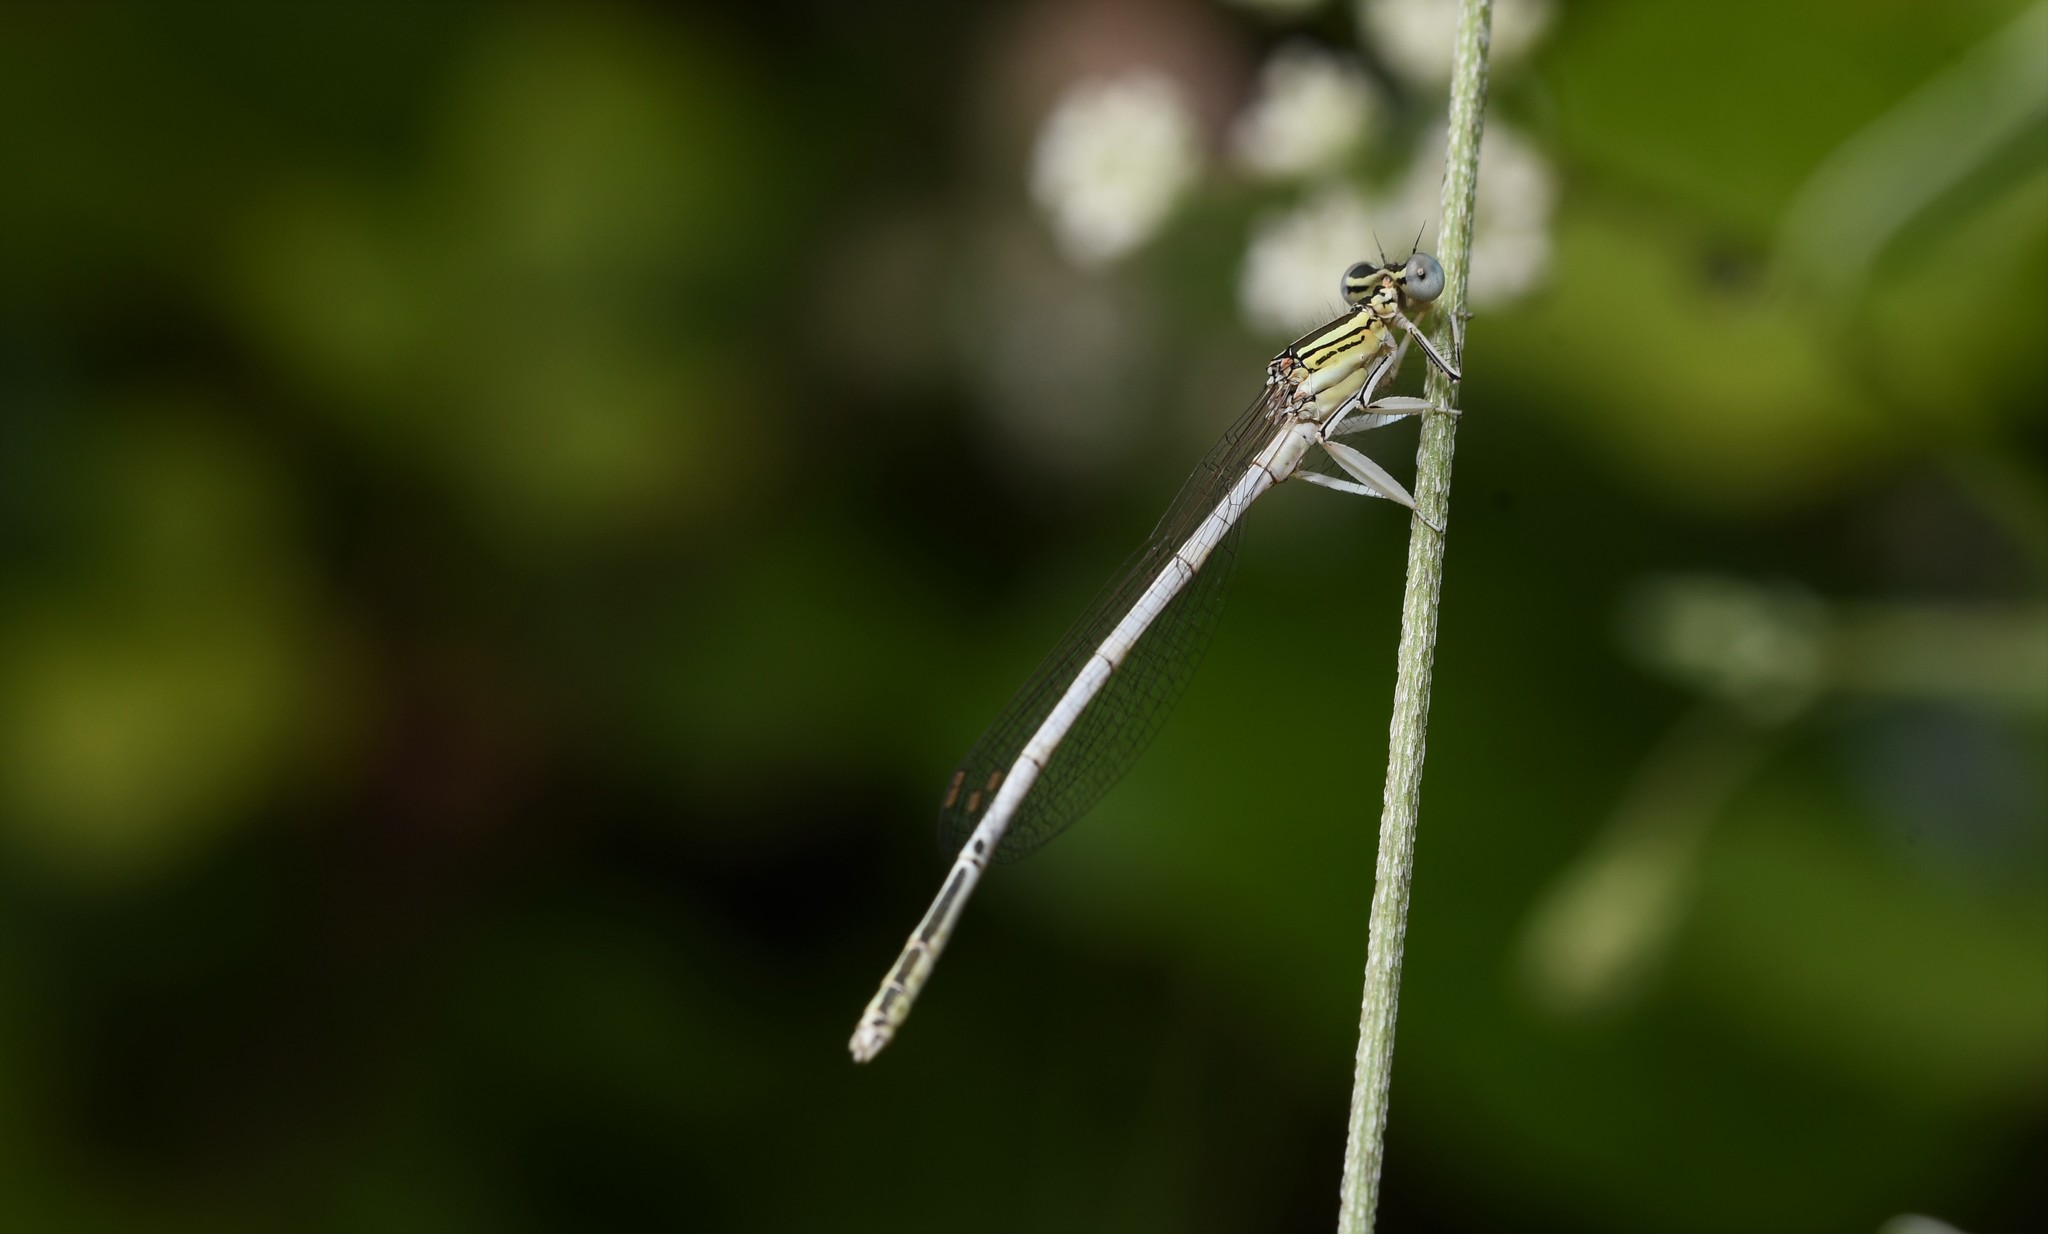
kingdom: Animalia
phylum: Arthropoda
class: Insecta
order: Odonata
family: Platycnemididae
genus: Platycnemis
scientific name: Platycnemis latipes
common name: White featherleg
